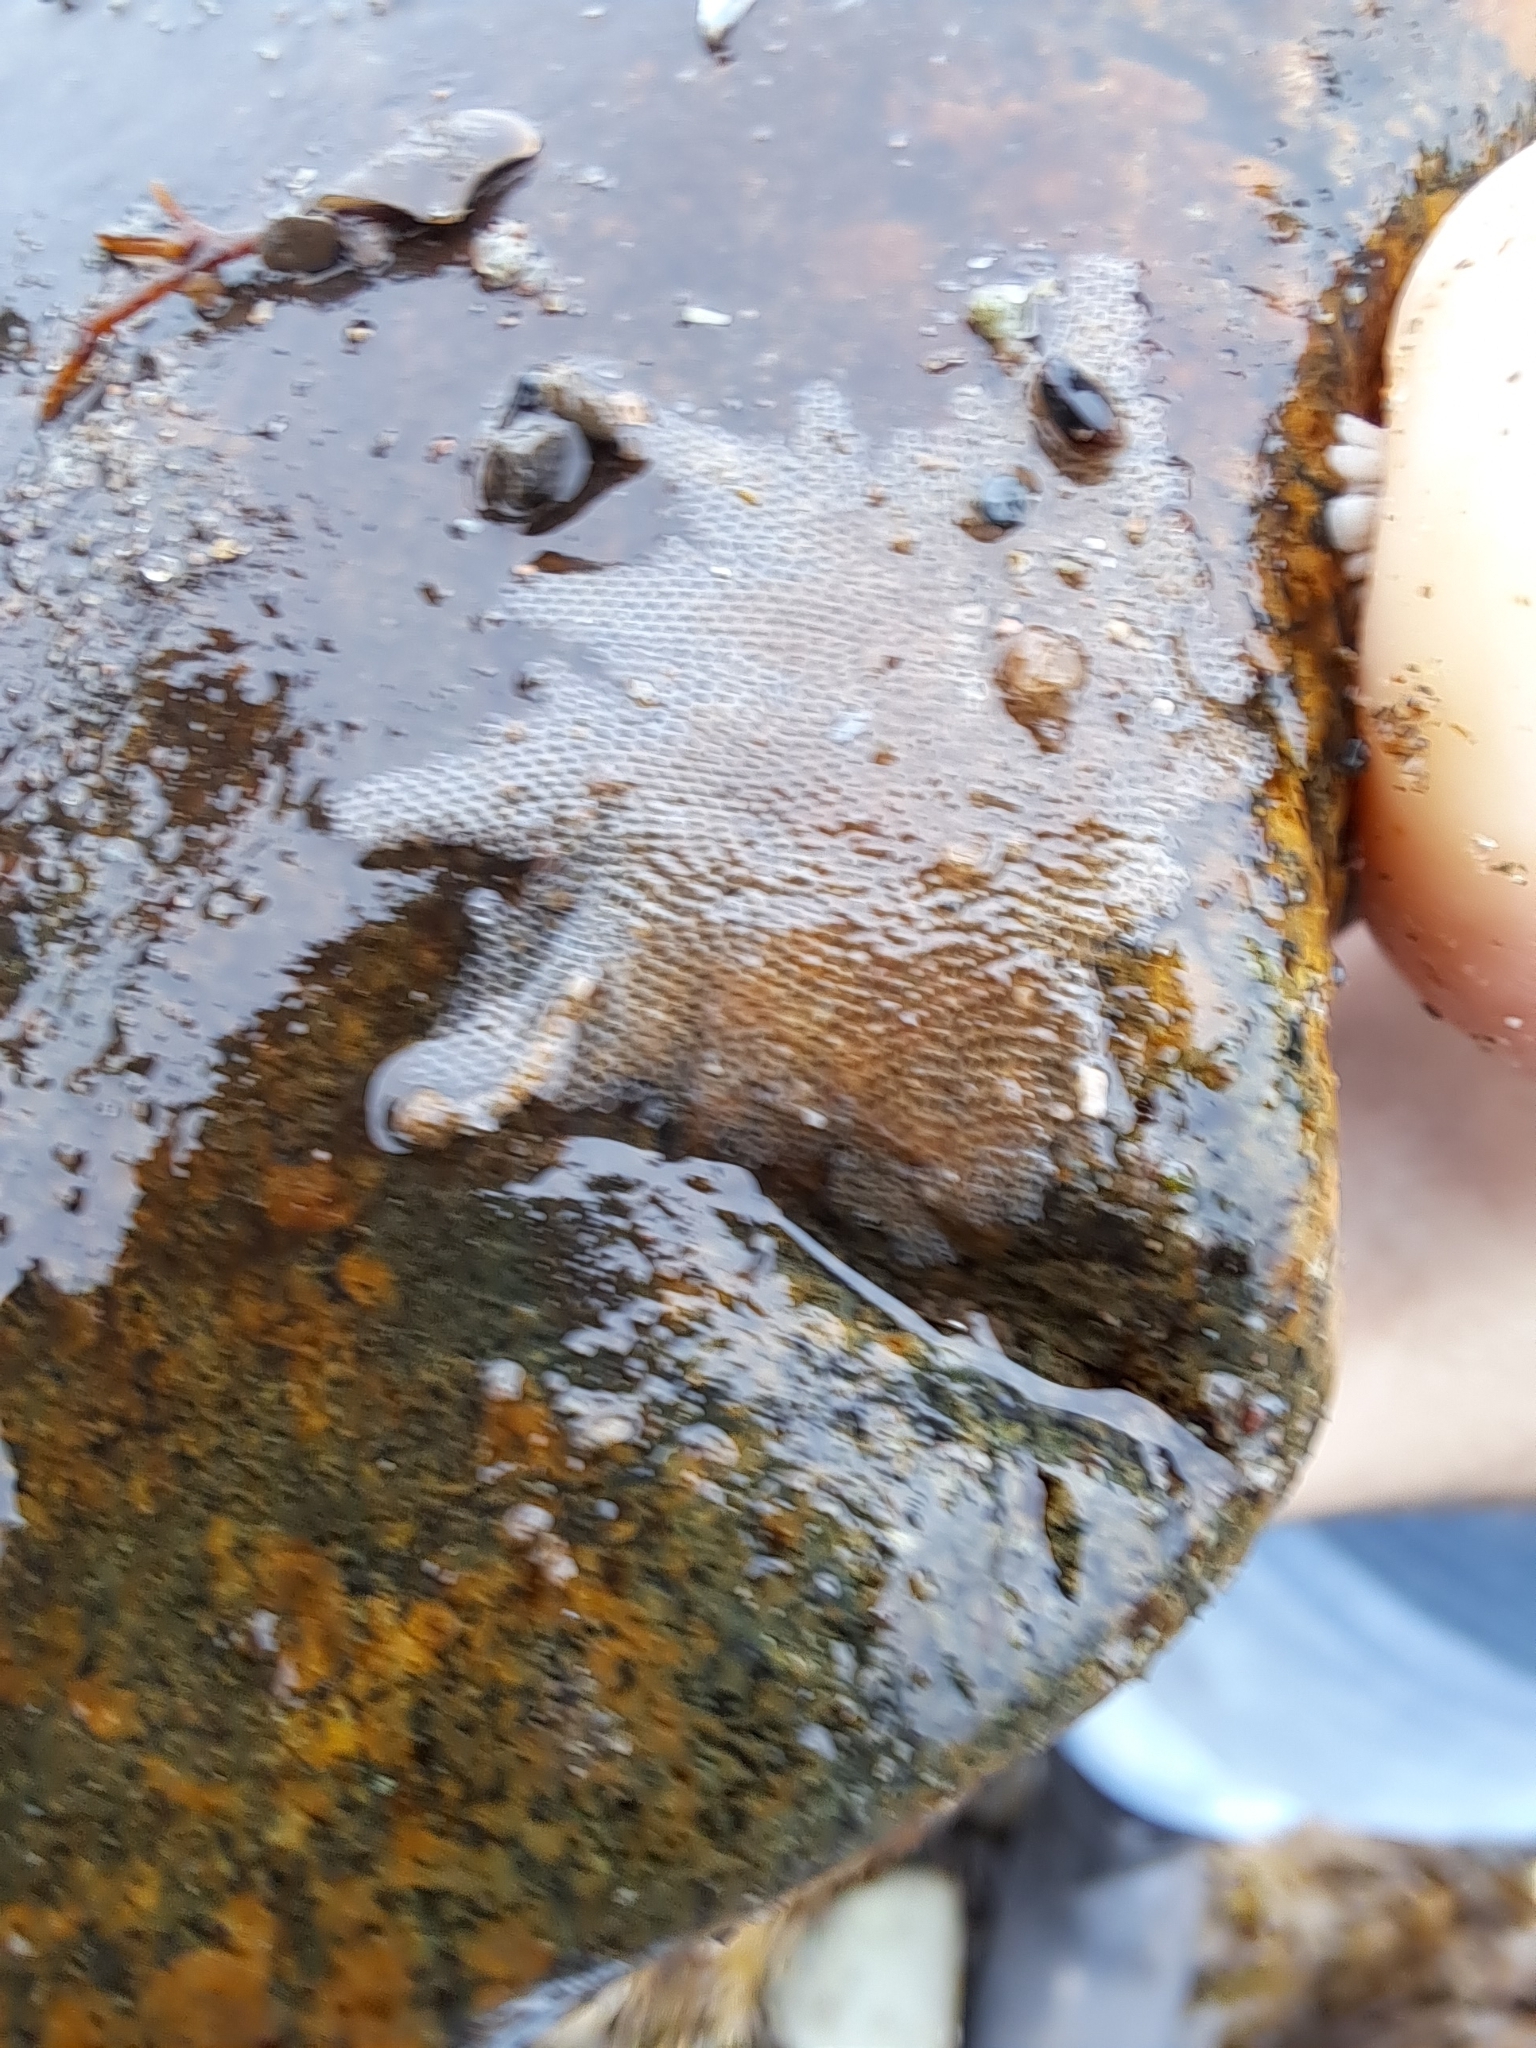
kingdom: Animalia
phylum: Bryozoa
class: Gymnolaemata
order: Cheilostomatida
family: Membraniporidae
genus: Membranipora
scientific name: Membranipora membranacea
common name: Sea mat
